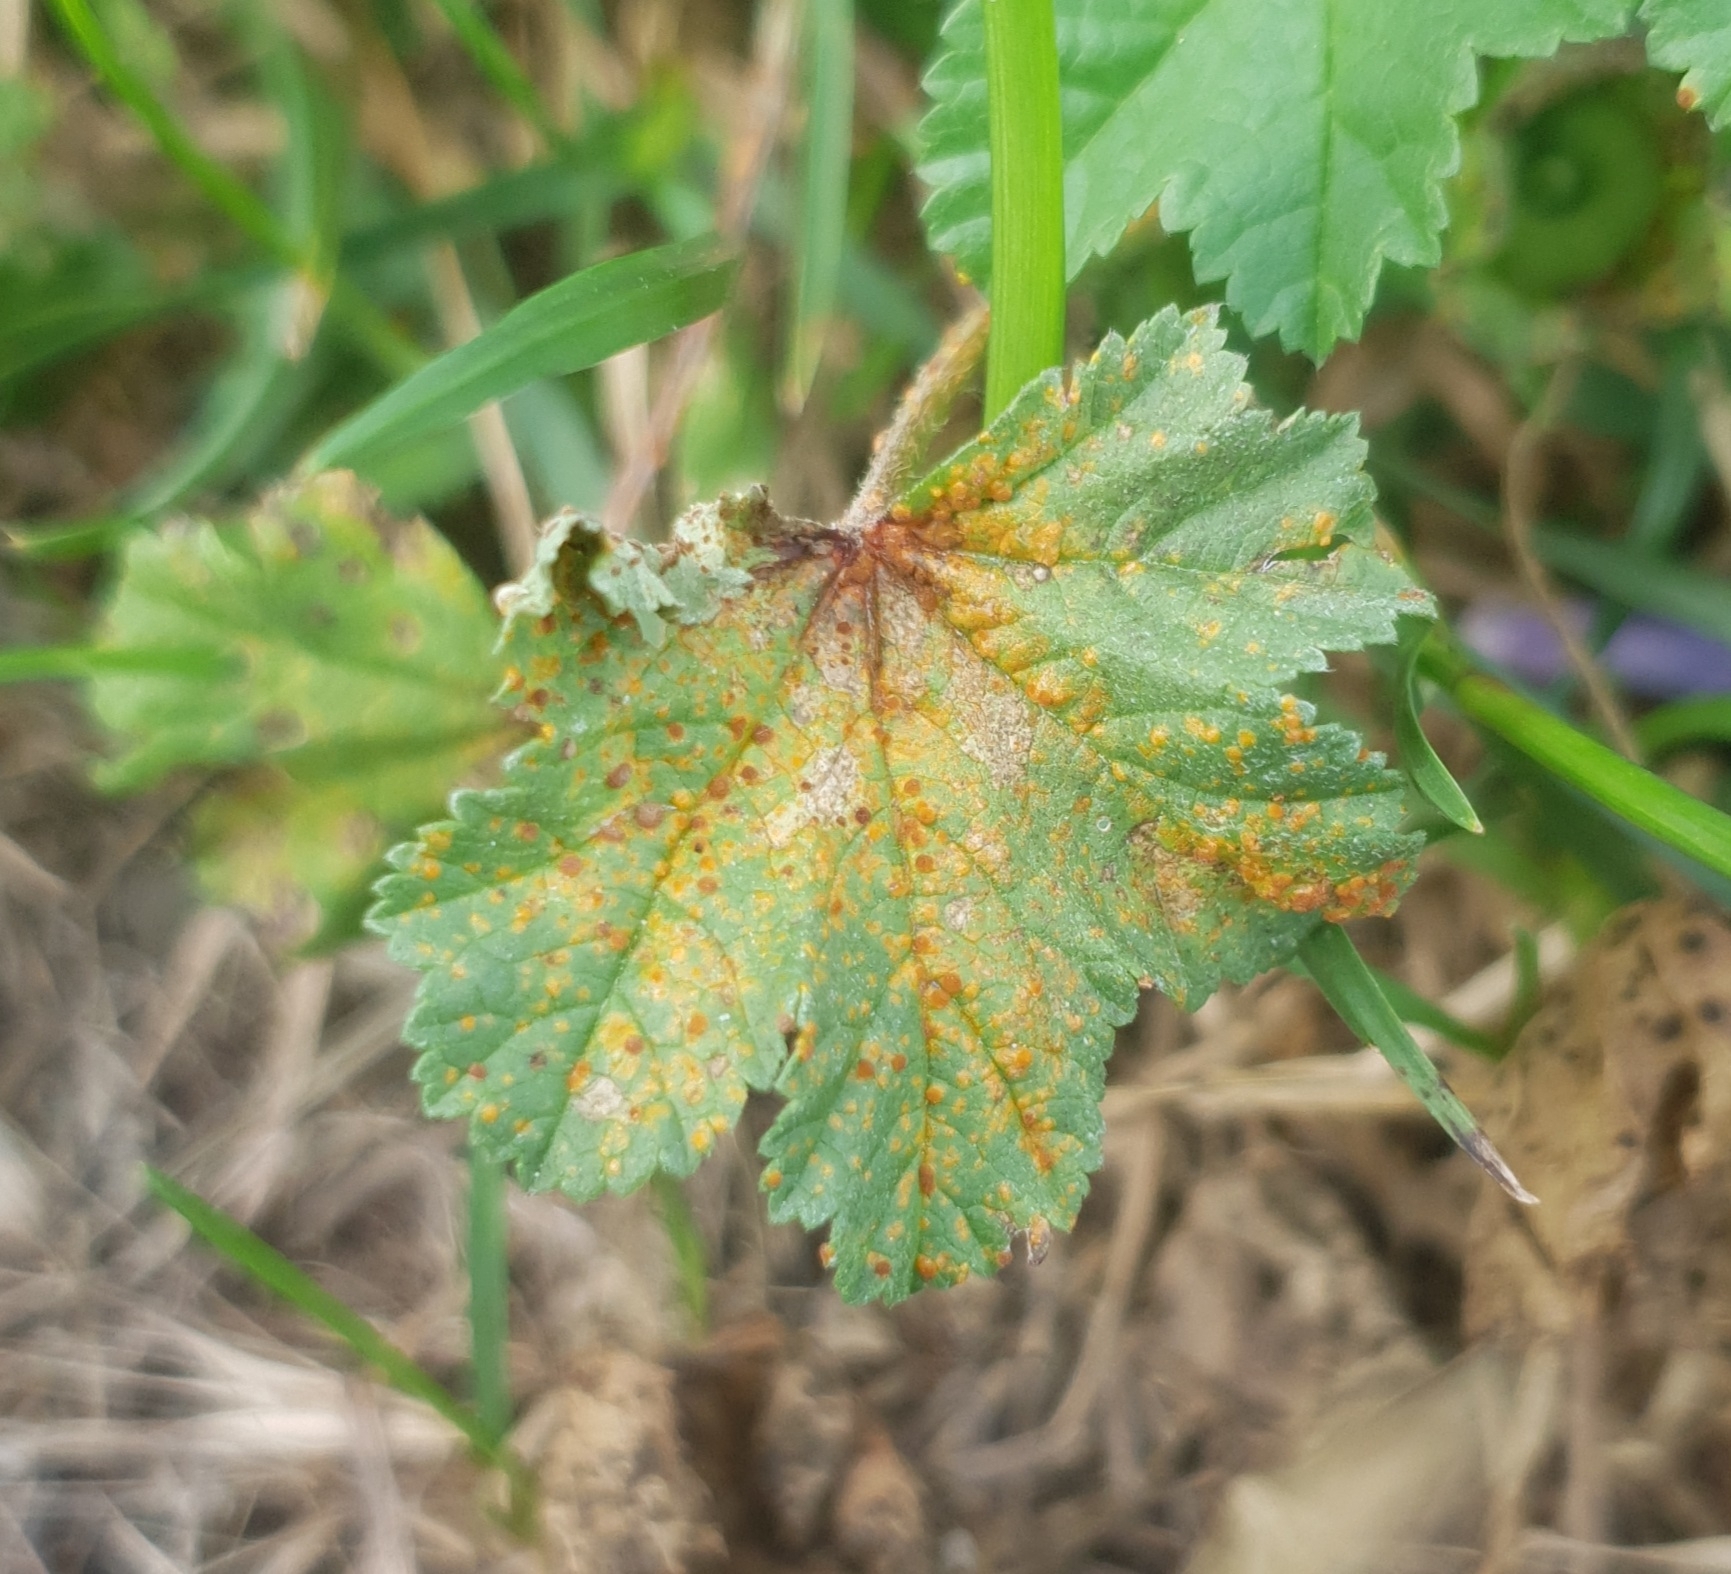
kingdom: Fungi
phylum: Basidiomycota
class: Pucciniomycetes
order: Pucciniales
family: Pucciniaceae
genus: Puccinia
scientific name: Puccinia malvacearum
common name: Hollyhock rust
